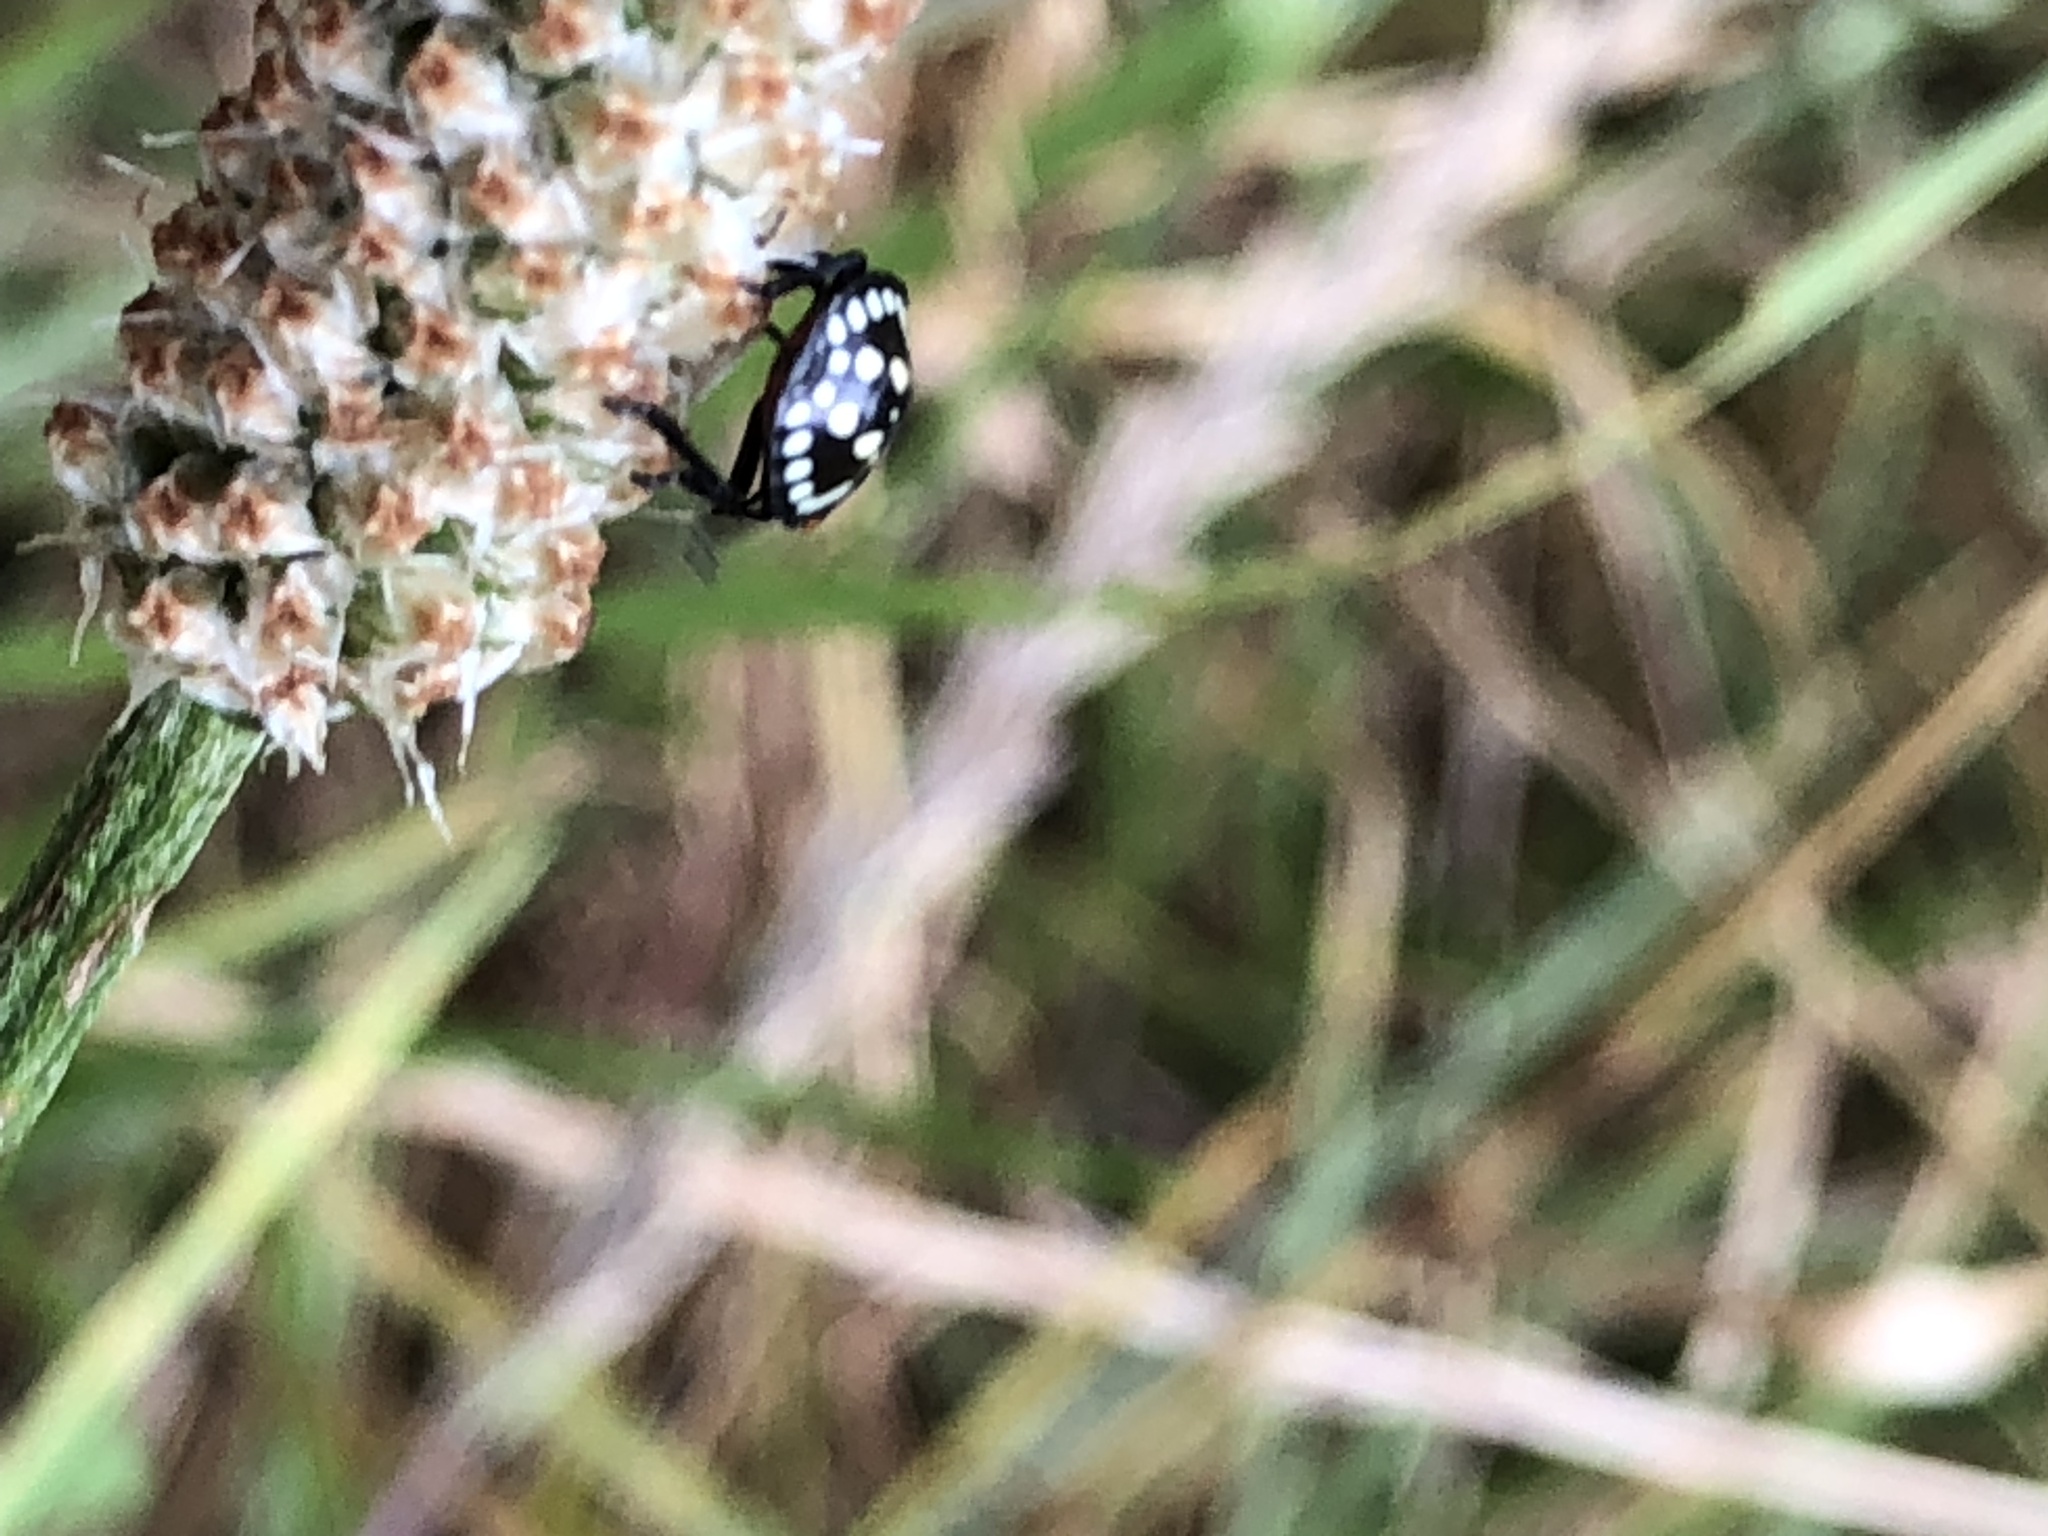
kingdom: Animalia
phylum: Arthropoda
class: Insecta
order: Hemiptera
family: Pentatomidae
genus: Nezara
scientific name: Nezara viridula
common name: Southern green stink bug
